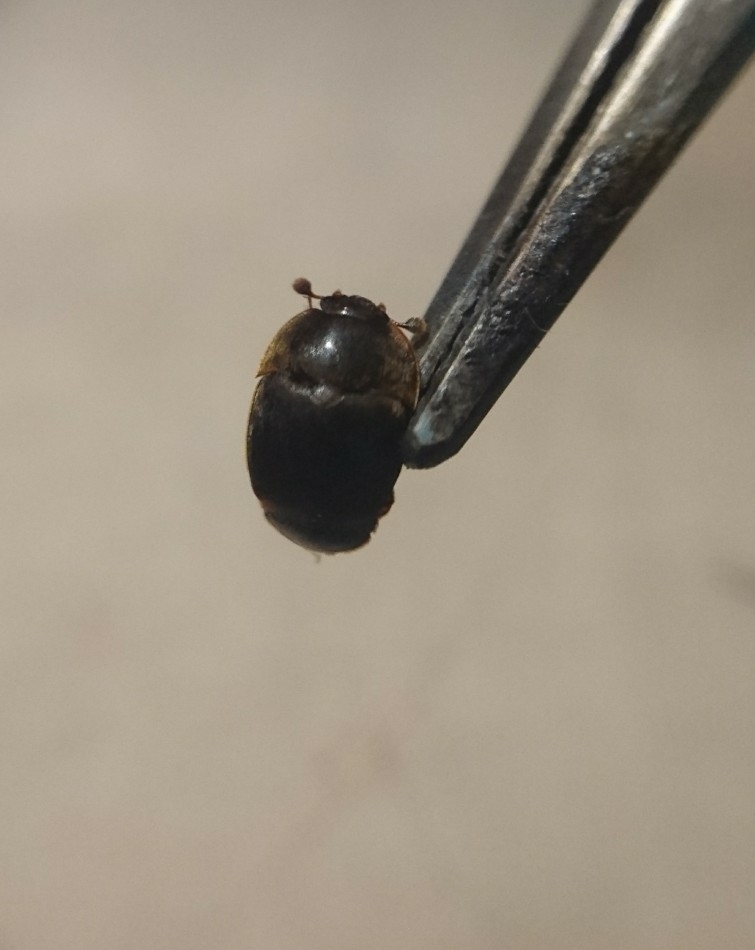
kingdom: Animalia
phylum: Arthropoda
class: Insecta
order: Coleoptera
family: Nitidulidae
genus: Aethina
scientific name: Aethina tumida
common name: Small hive beetle
